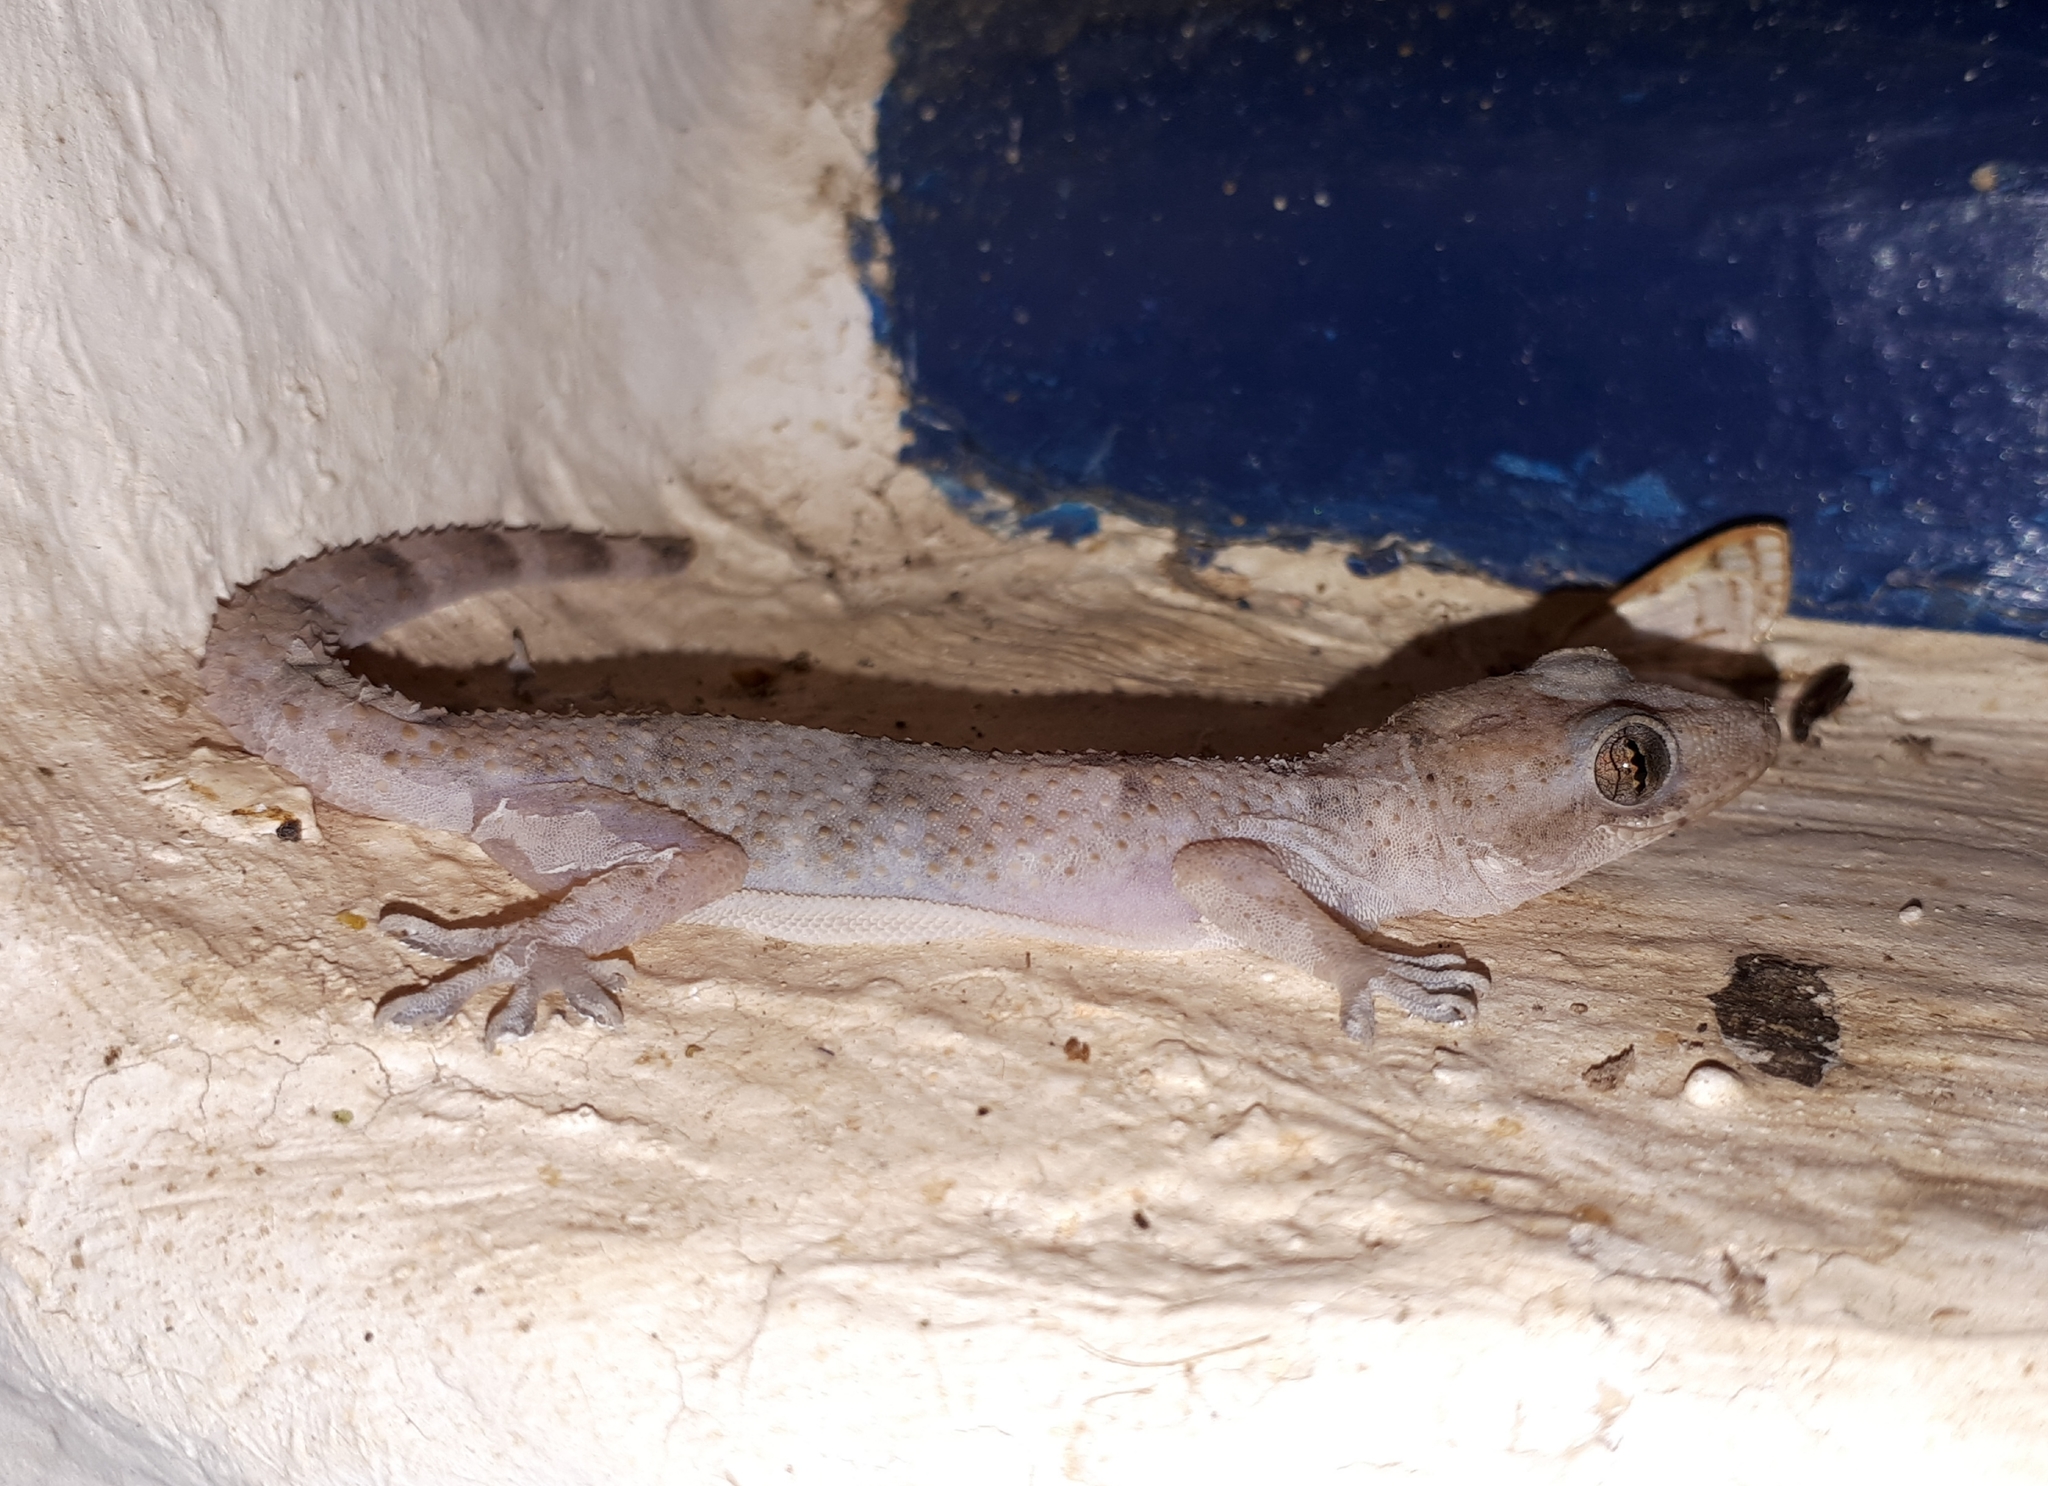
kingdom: Animalia
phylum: Chordata
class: Squamata
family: Gekkonidae
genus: Hemidactylus
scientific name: Hemidactylus mabouia
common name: House gecko
